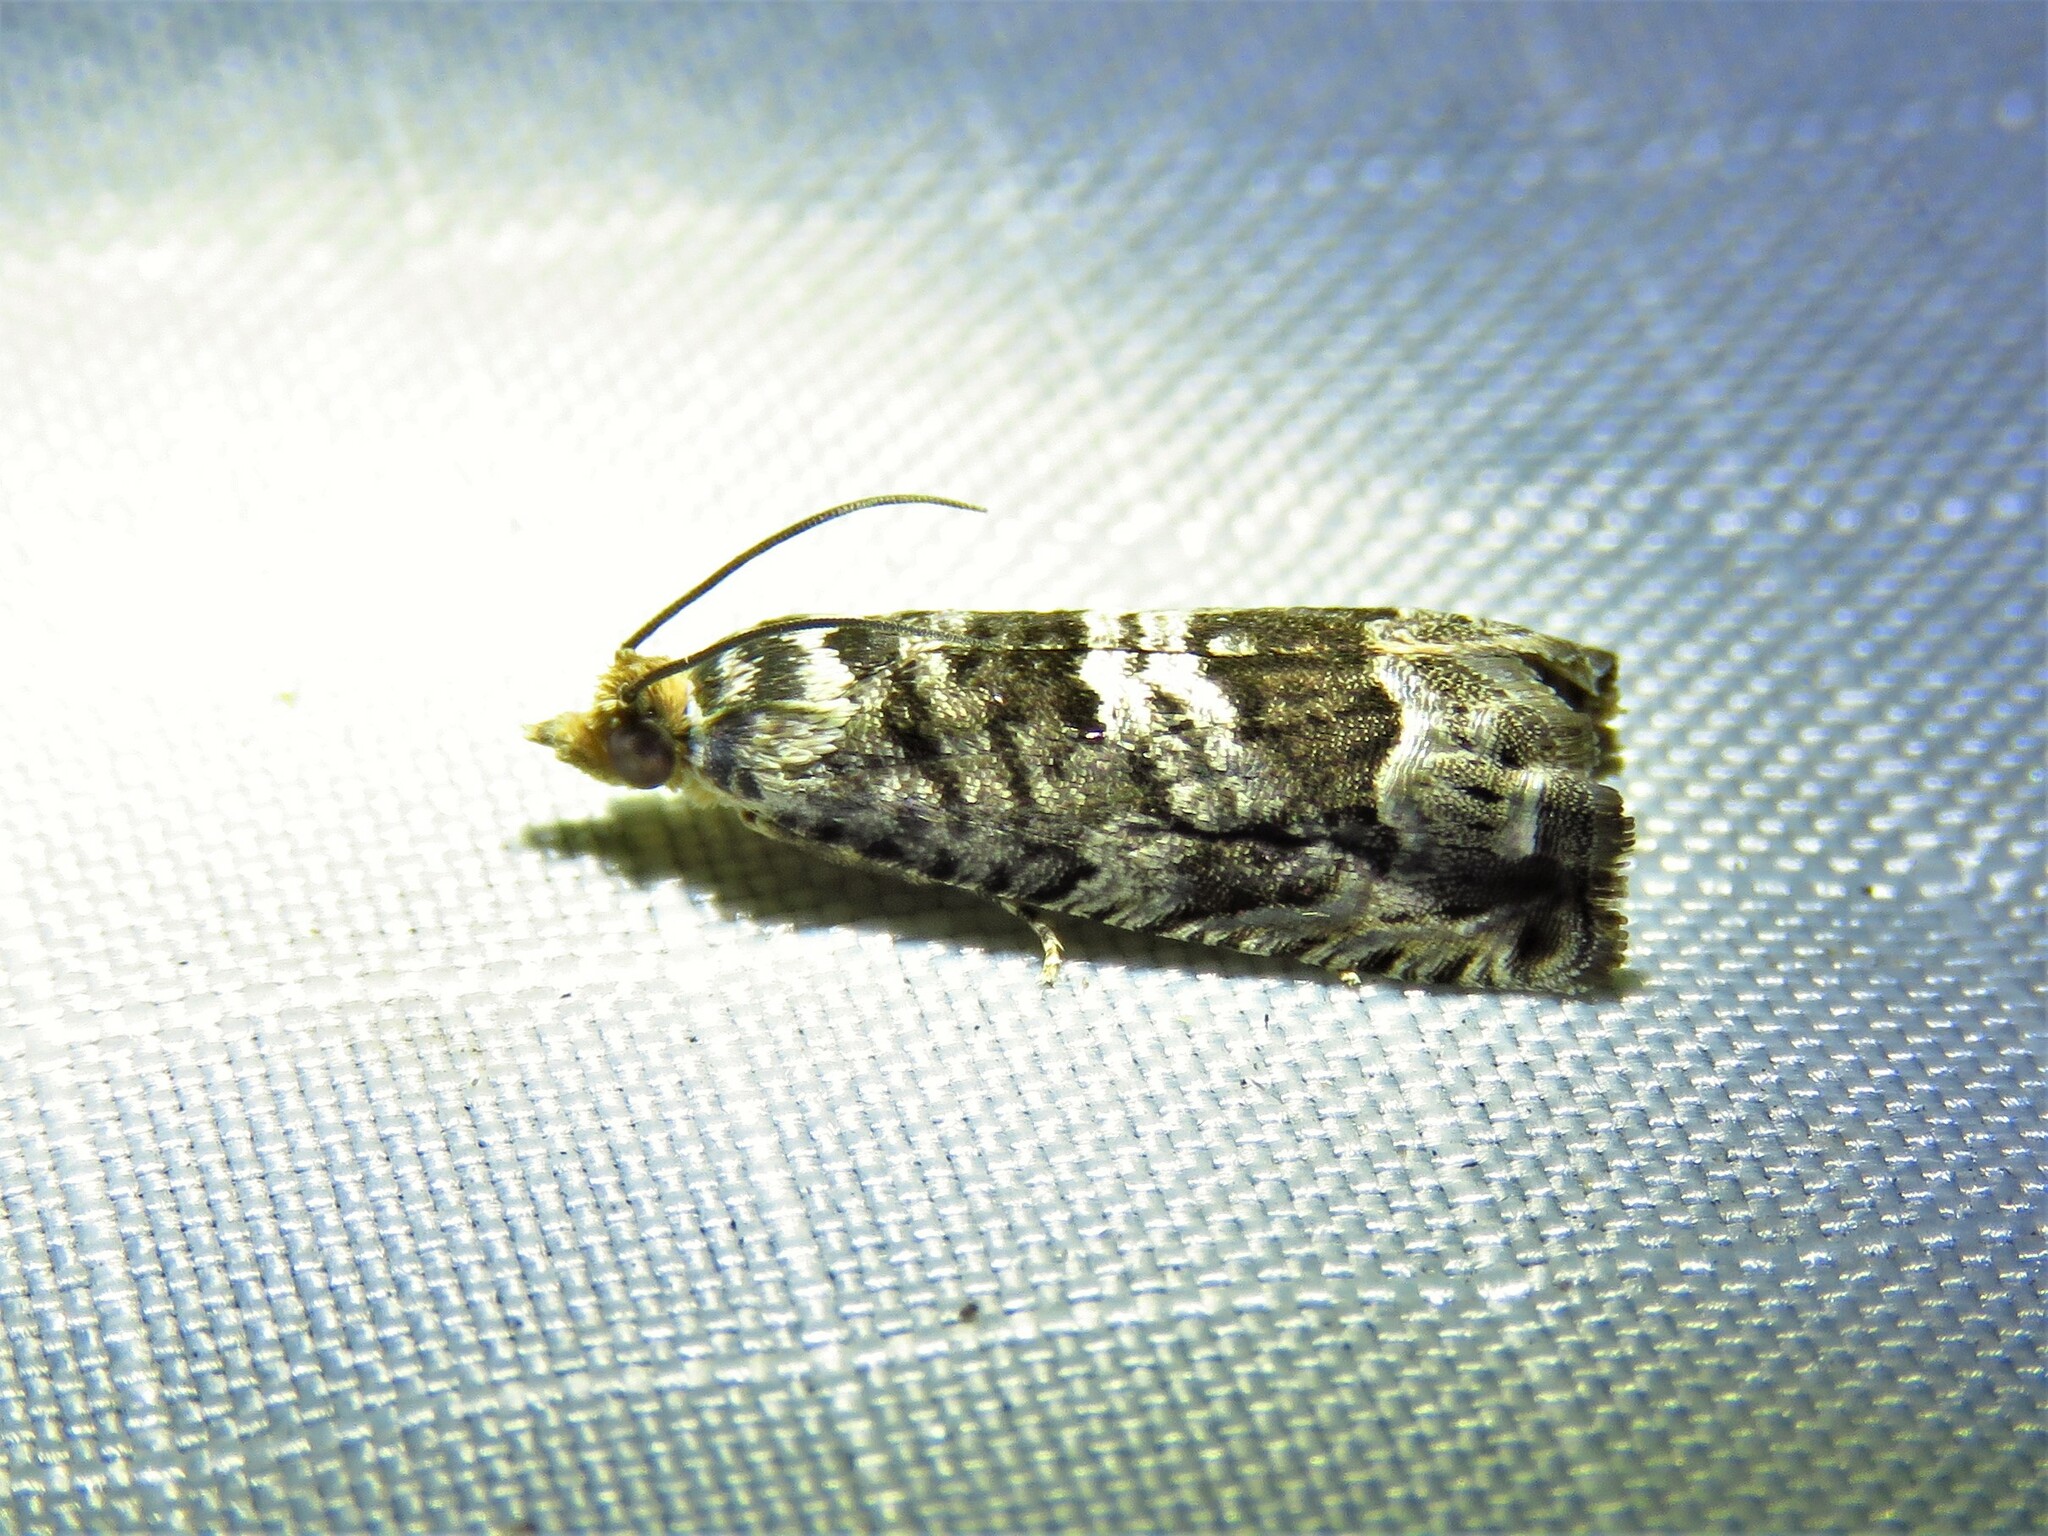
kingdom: Animalia
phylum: Arthropoda
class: Insecta
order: Lepidoptera
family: Tortricidae
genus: Cydia
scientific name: Cydia membrosa
